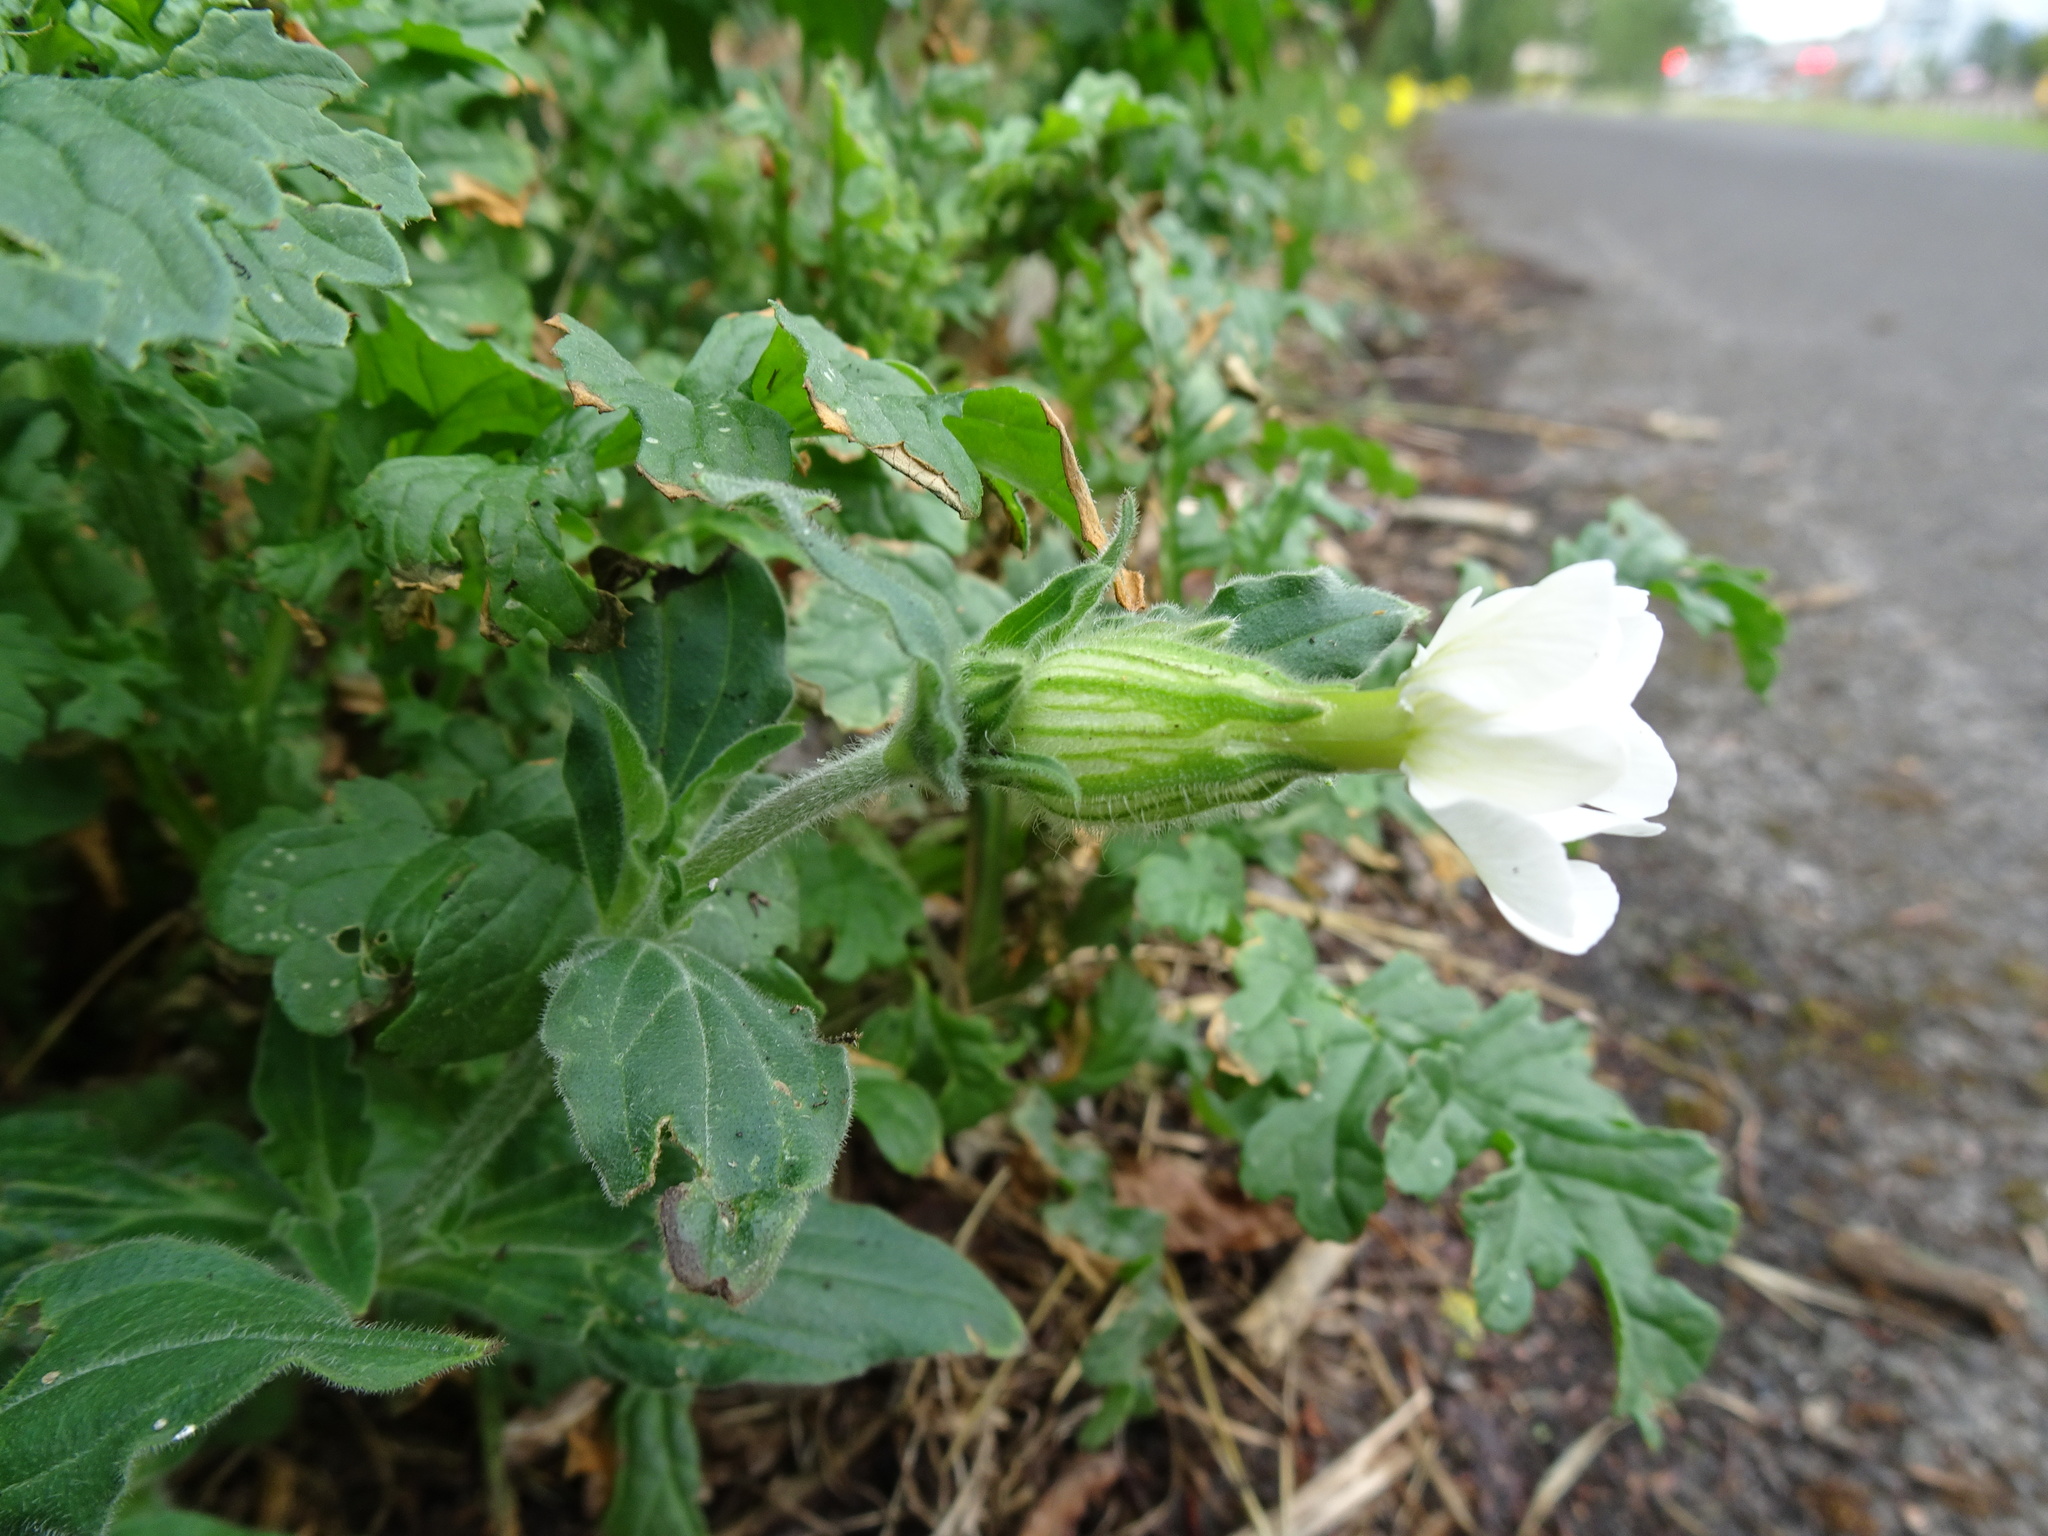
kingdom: Plantae
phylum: Tracheophyta
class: Magnoliopsida
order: Caryophyllales
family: Caryophyllaceae
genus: Silene
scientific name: Silene latifolia
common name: White campion
